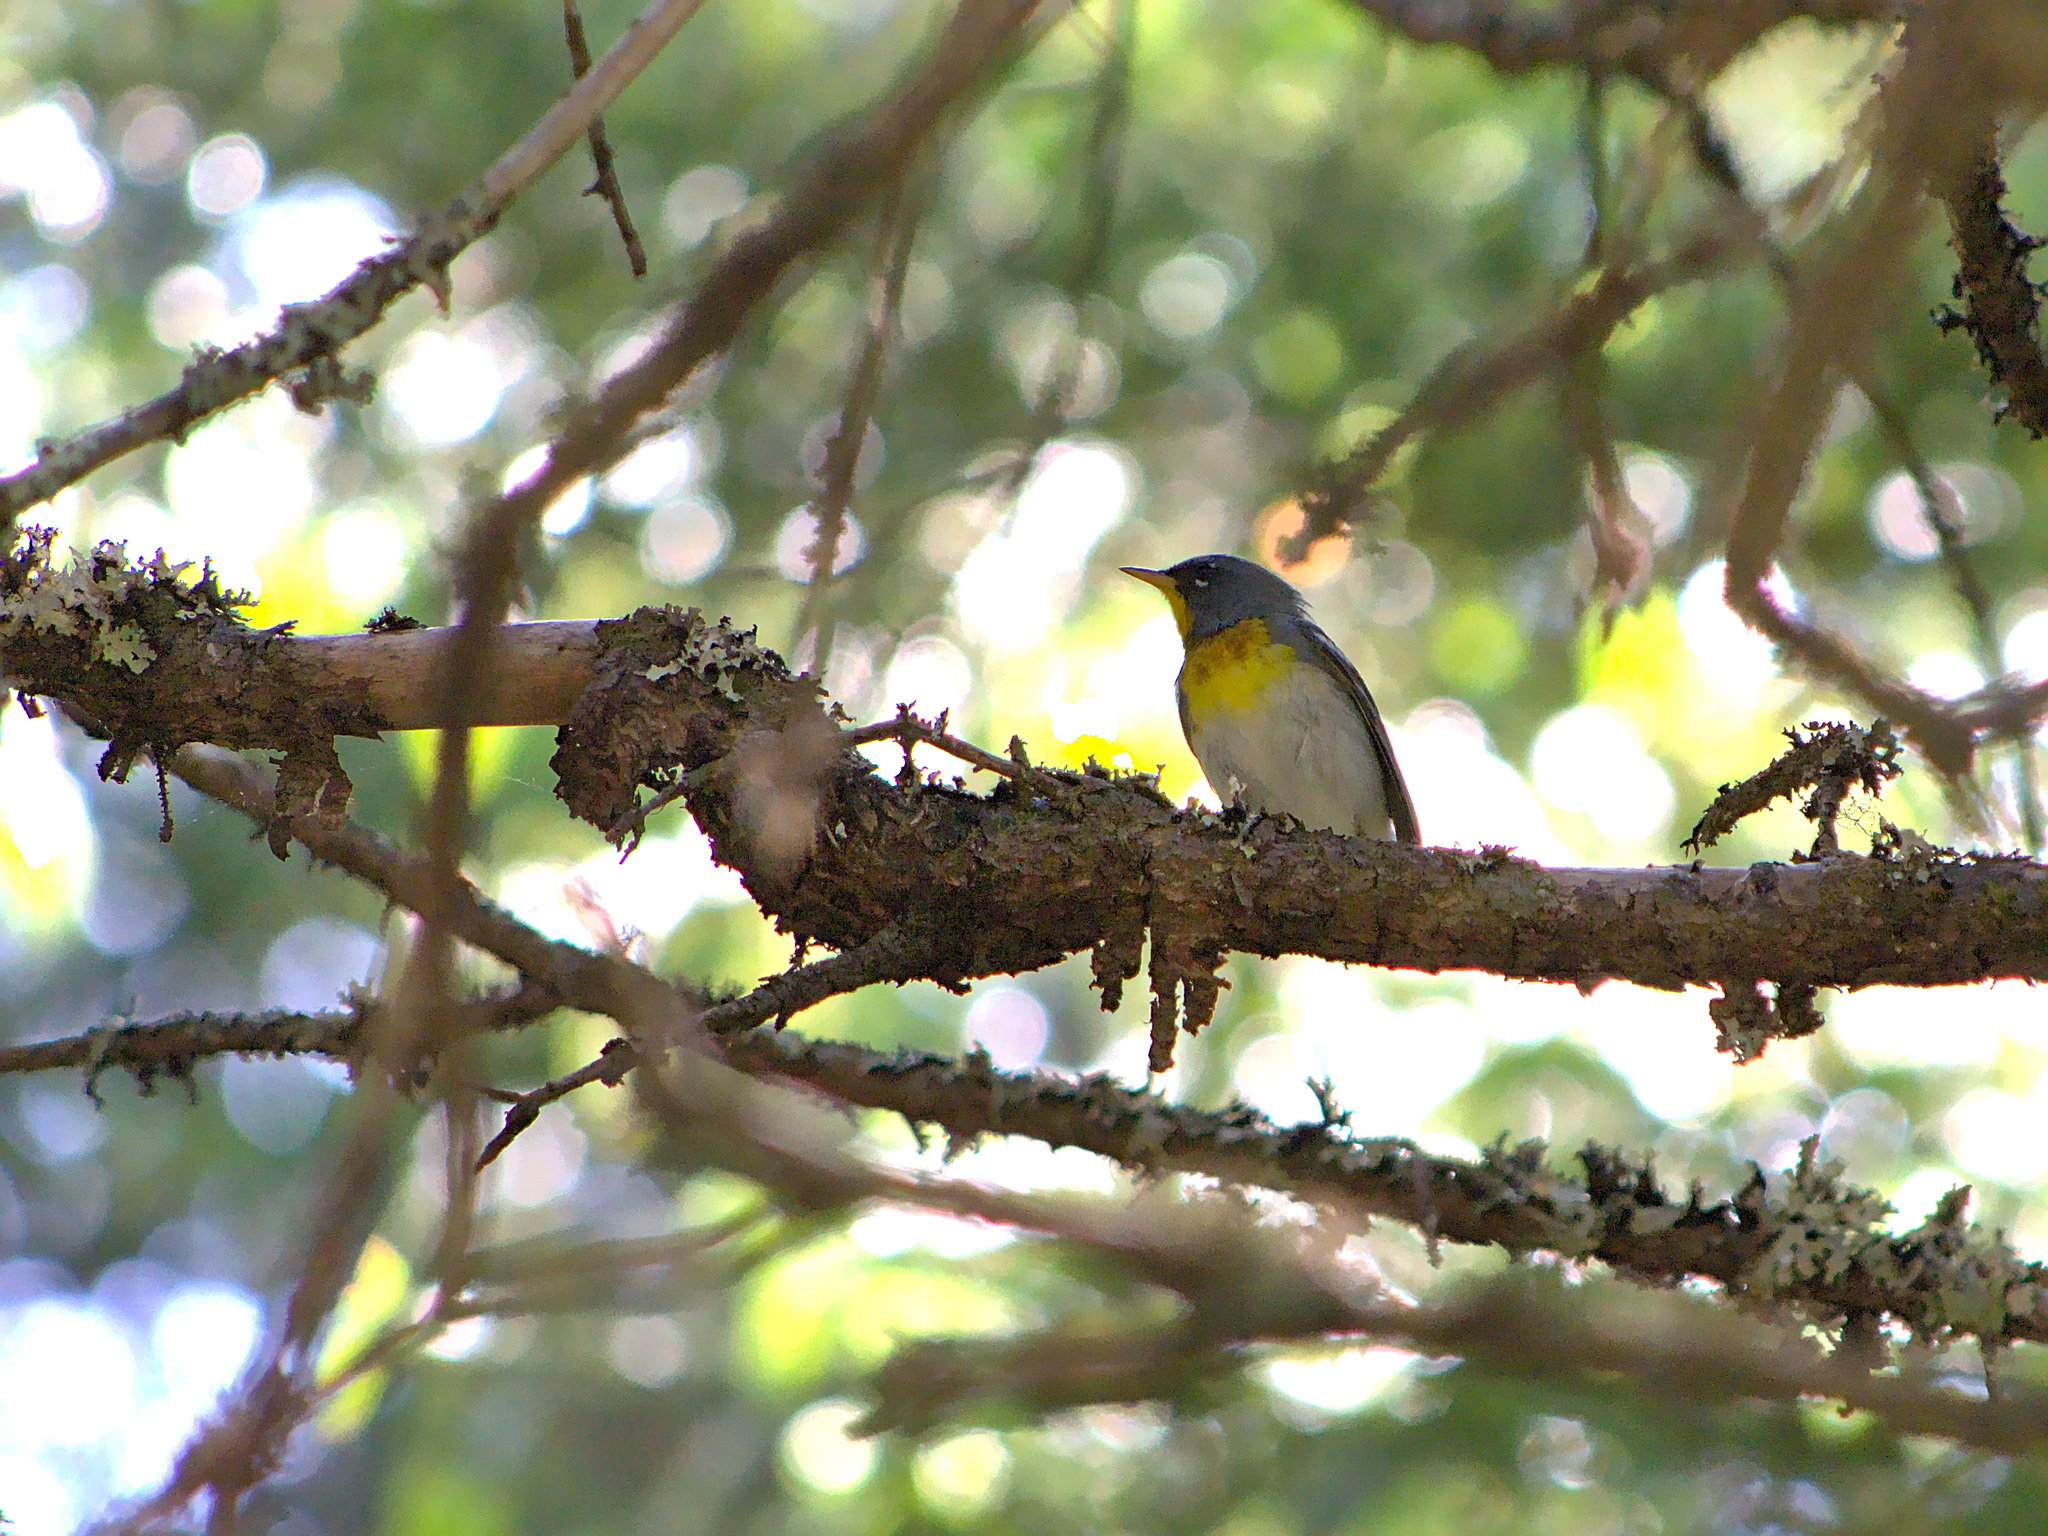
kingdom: Animalia
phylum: Chordata
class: Aves
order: Passeriformes
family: Parulidae
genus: Setophaga
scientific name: Setophaga americana
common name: Northern parula
